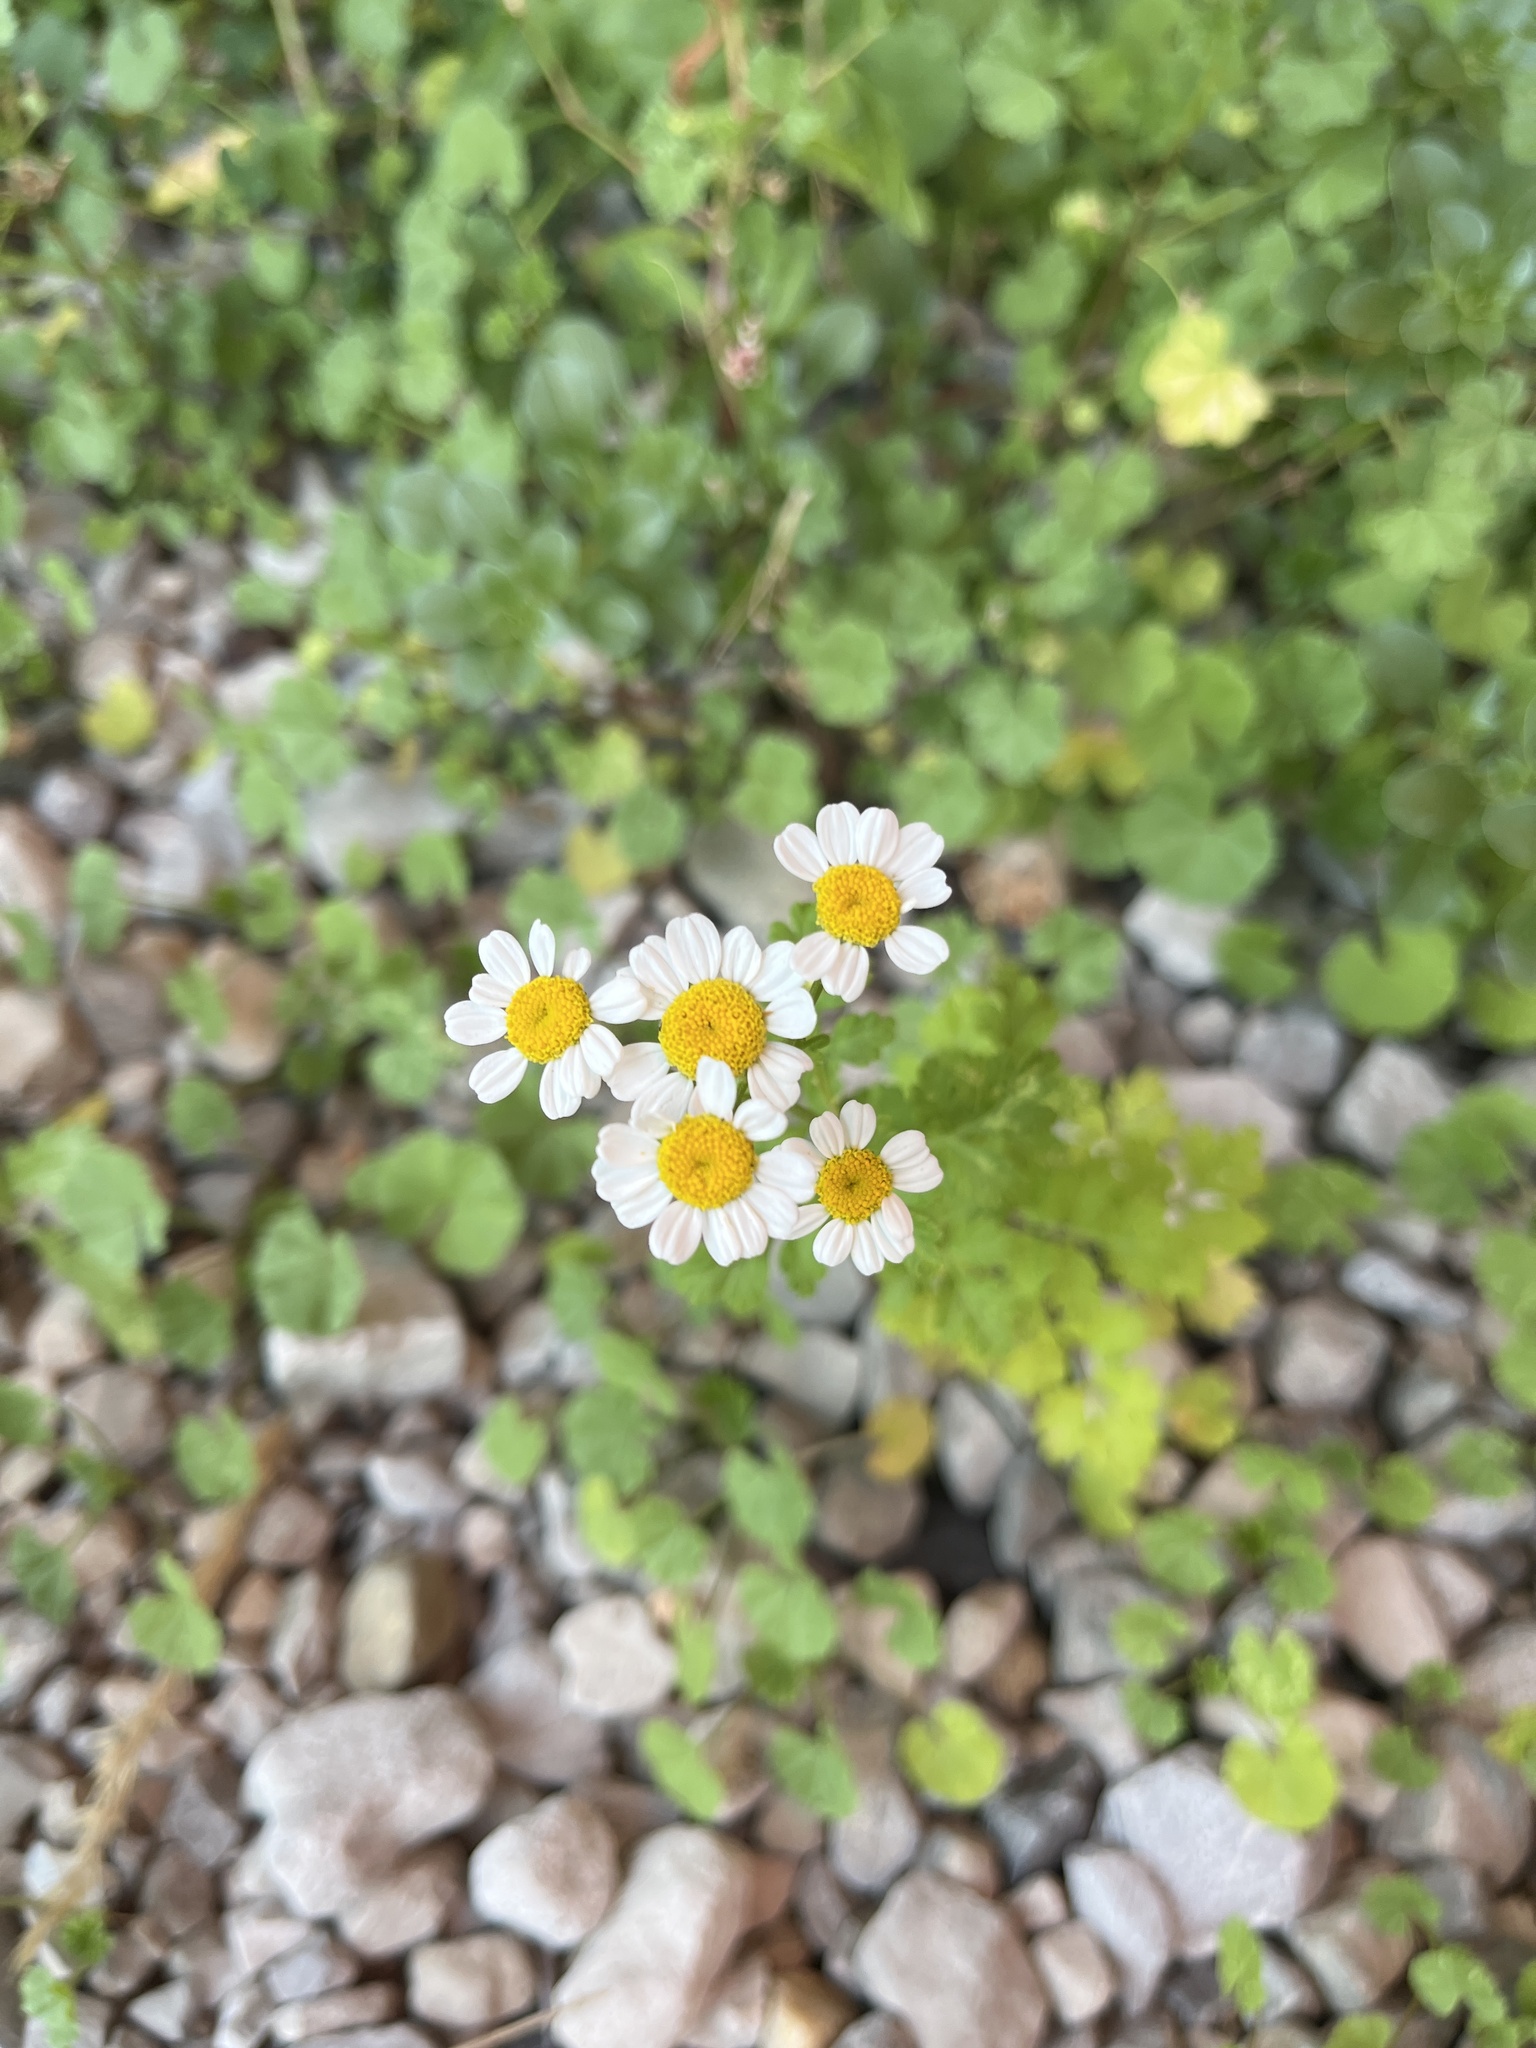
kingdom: Plantae
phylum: Tracheophyta
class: Magnoliopsida
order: Asterales
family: Asteraceae
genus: Tanacetum
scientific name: Tanacetum parthenium
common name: Feverfew
